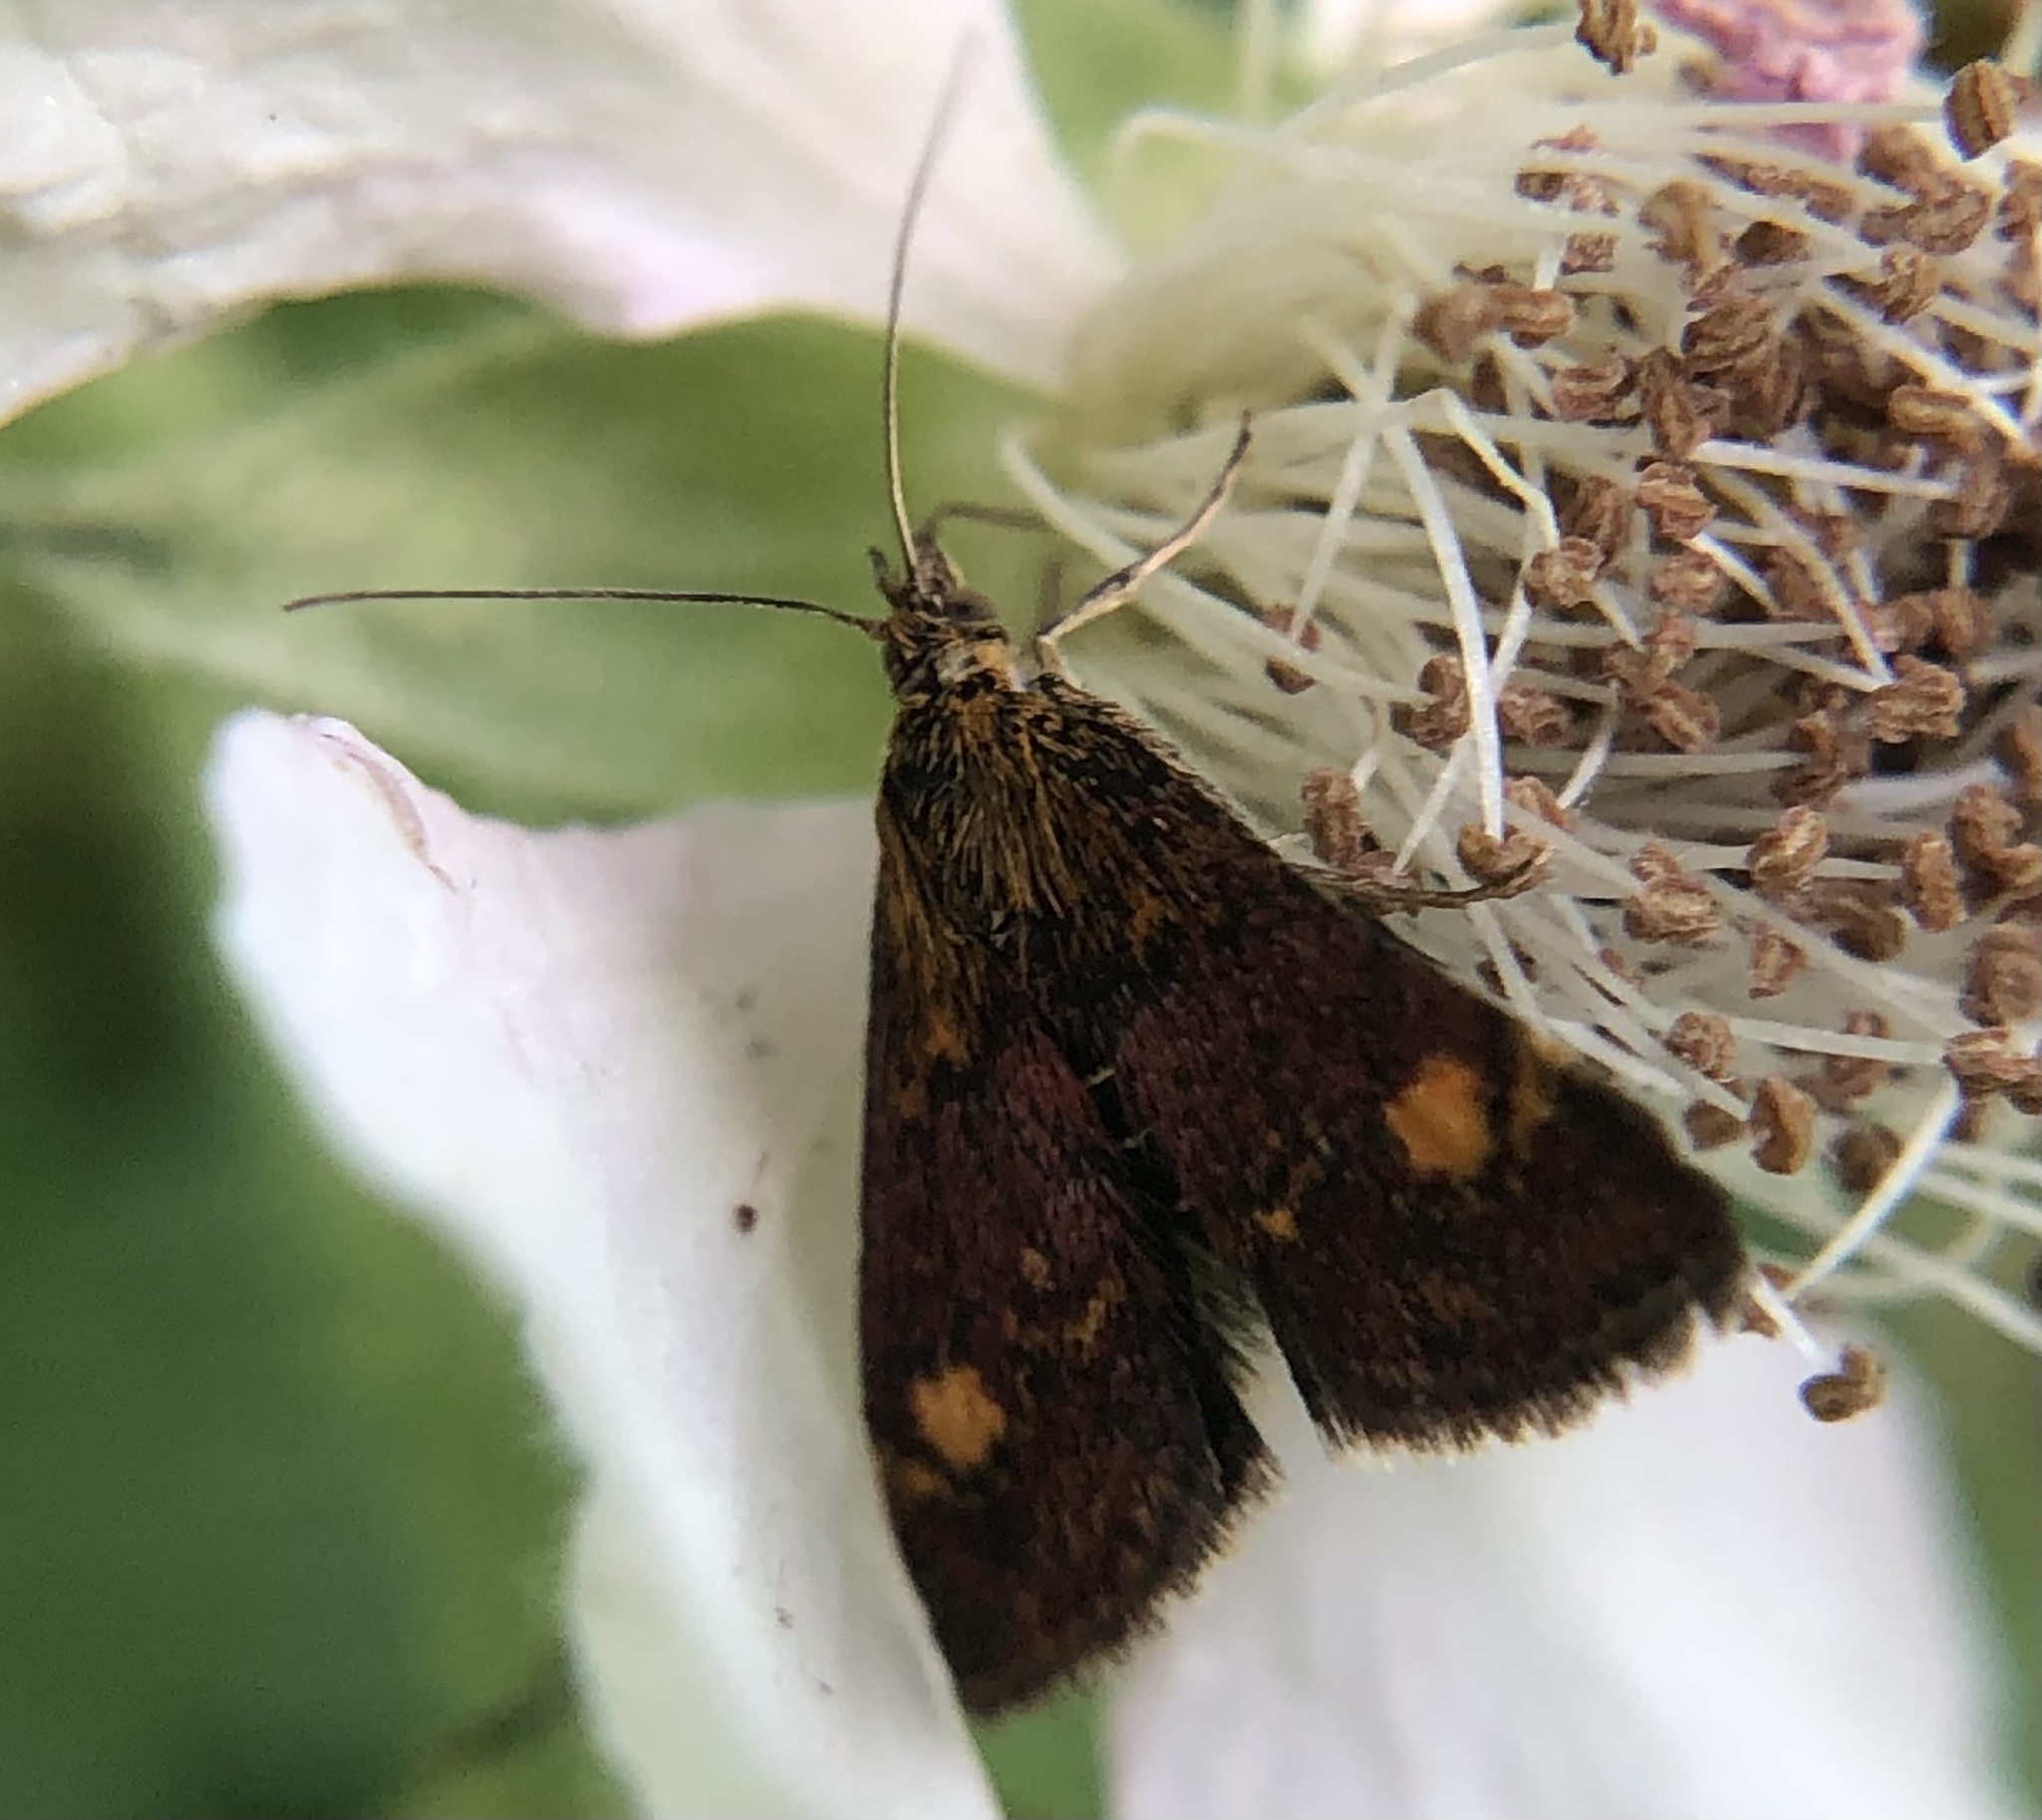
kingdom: Animalia
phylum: Arthropoda
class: Insecta
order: Lepidoptera
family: Crambidae
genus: Pyrausta
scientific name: Pyrausta aurata
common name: Small purple & gold
